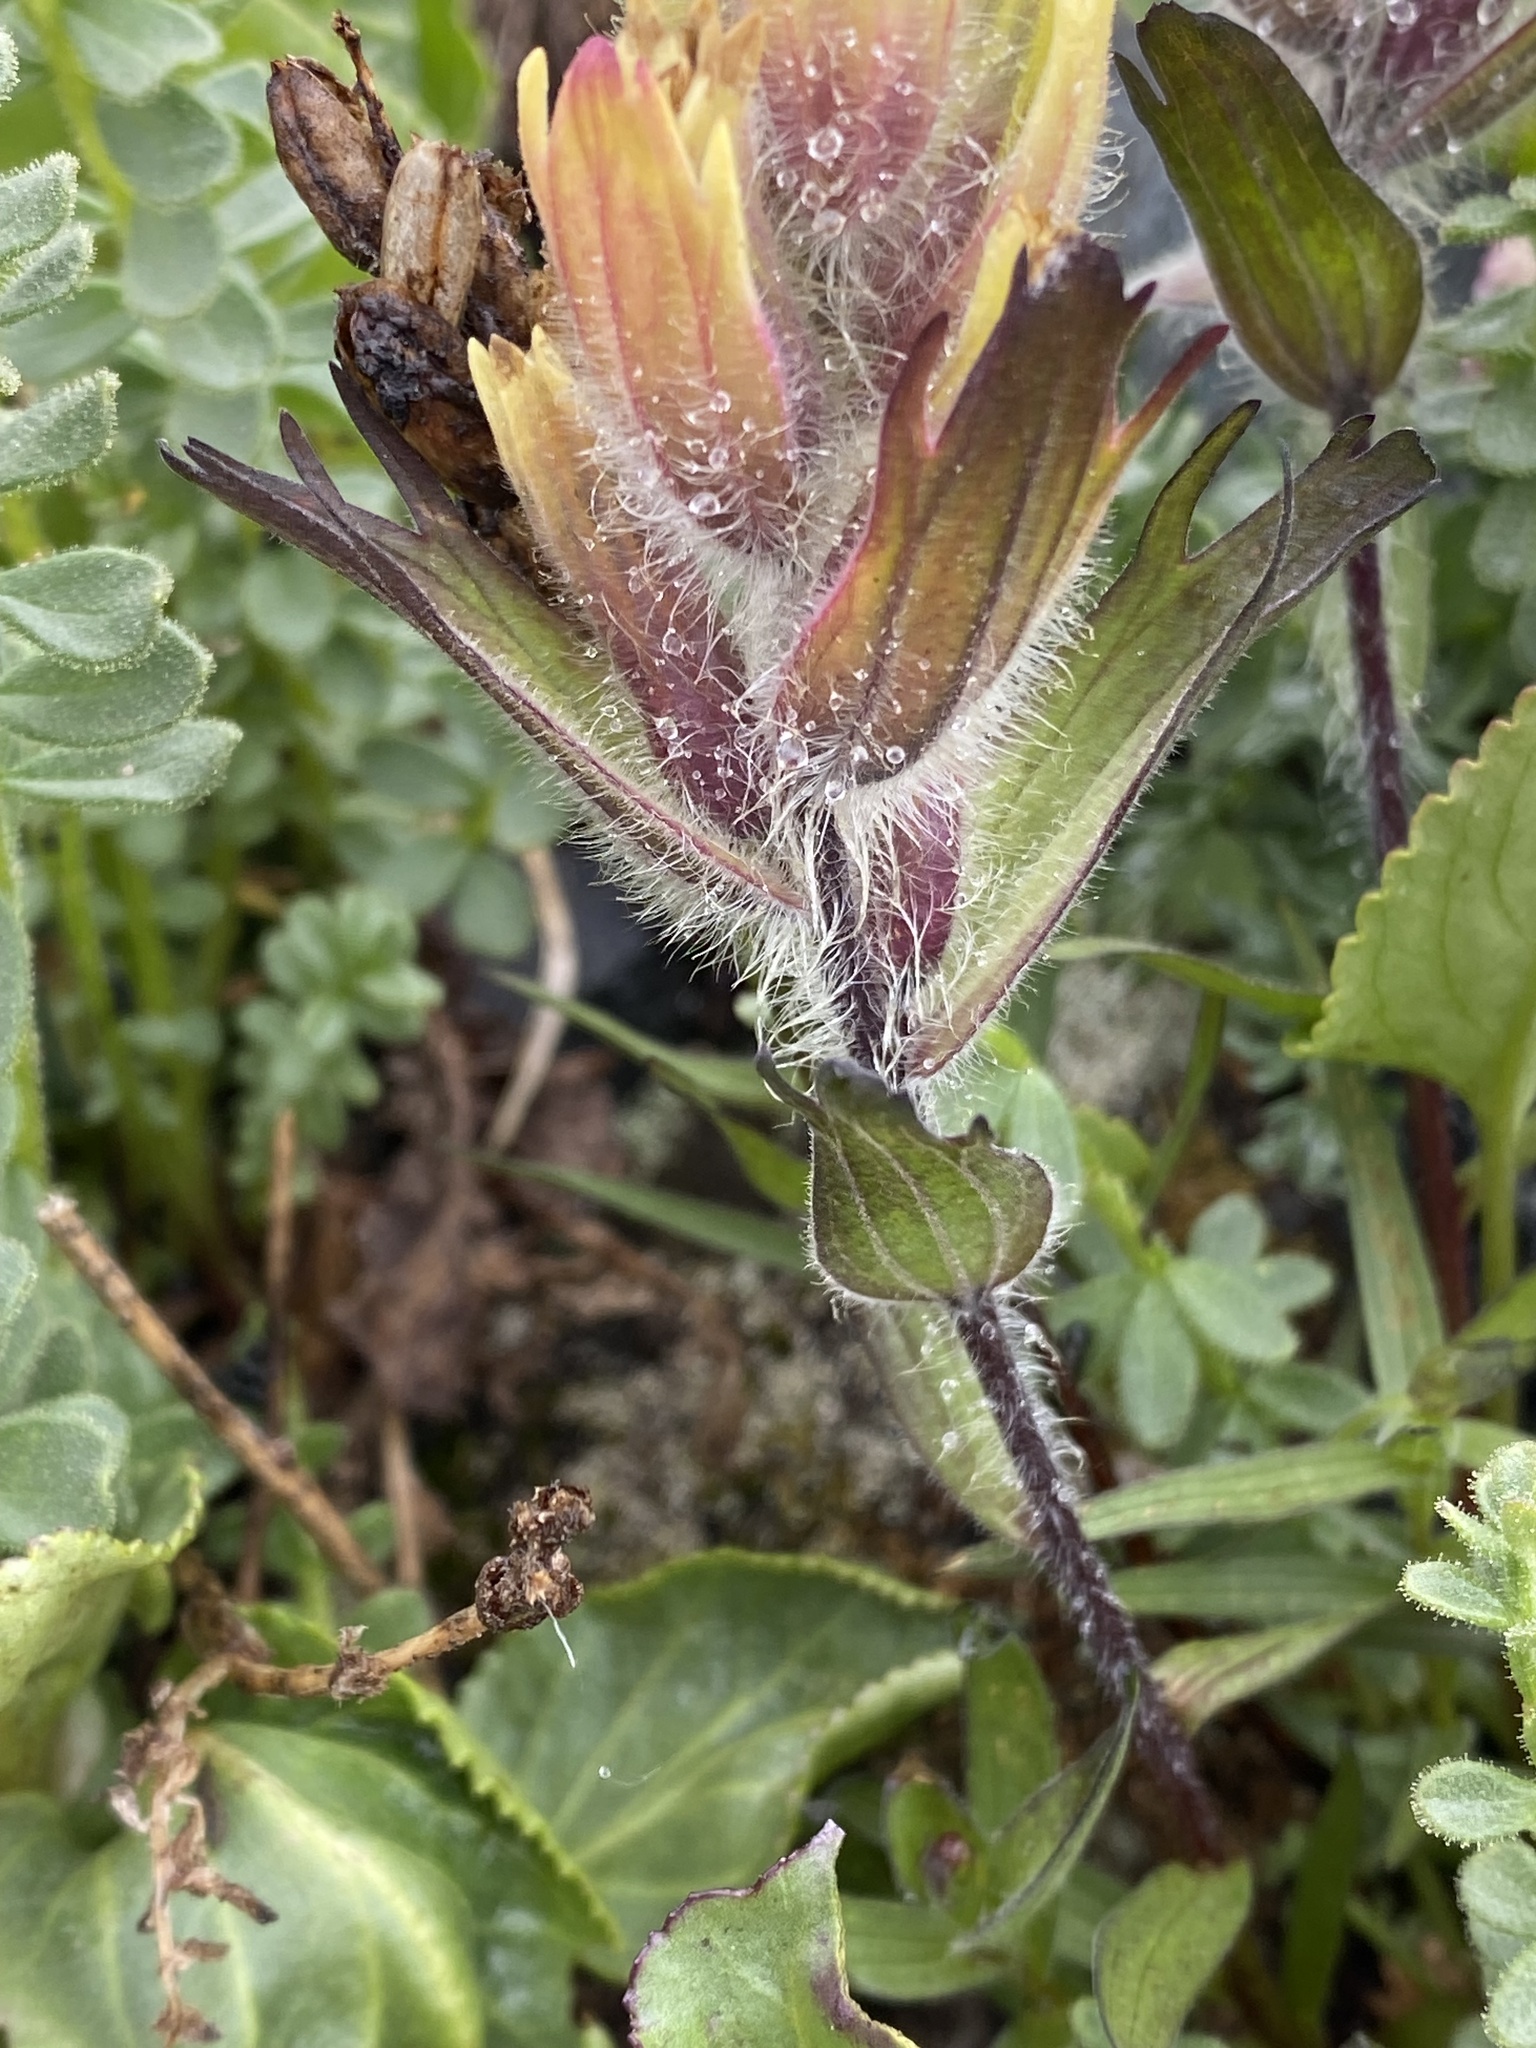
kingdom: Plantae
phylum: Tracheophyta
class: Magnoliopsida
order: Lamiales
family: Orobanchaceae
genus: Castilleja
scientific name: Castilleja occidentalis
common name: Western paintbrush
